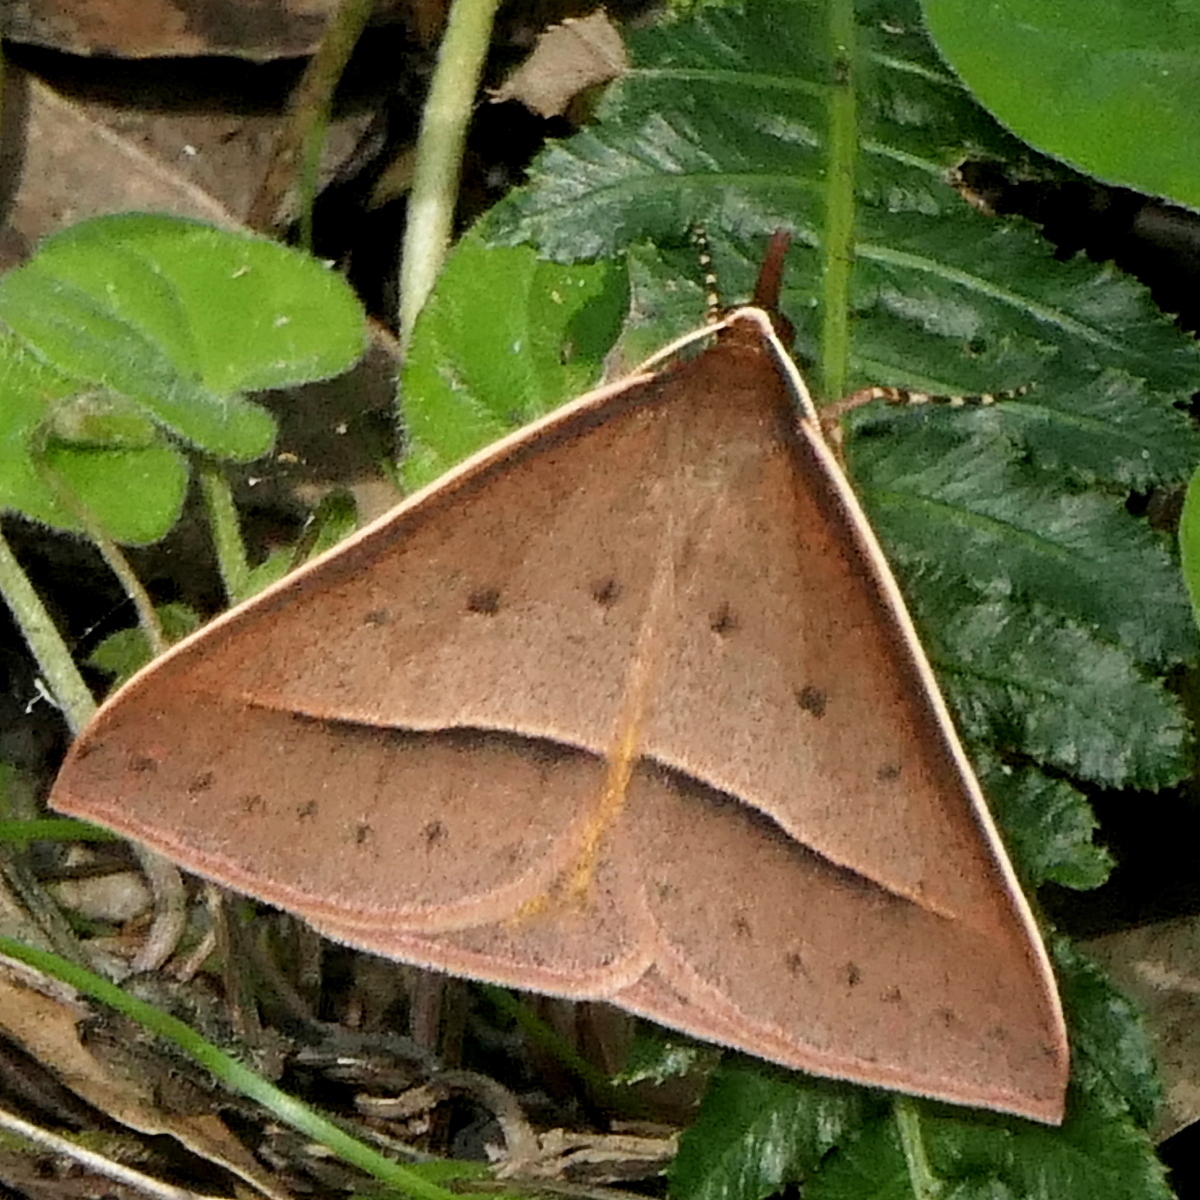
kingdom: Animalia
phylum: Arthropoda
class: Insecta
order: Lepidoptera
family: Geometridae
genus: Epidesmia
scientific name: Epidesmia chilonaria
